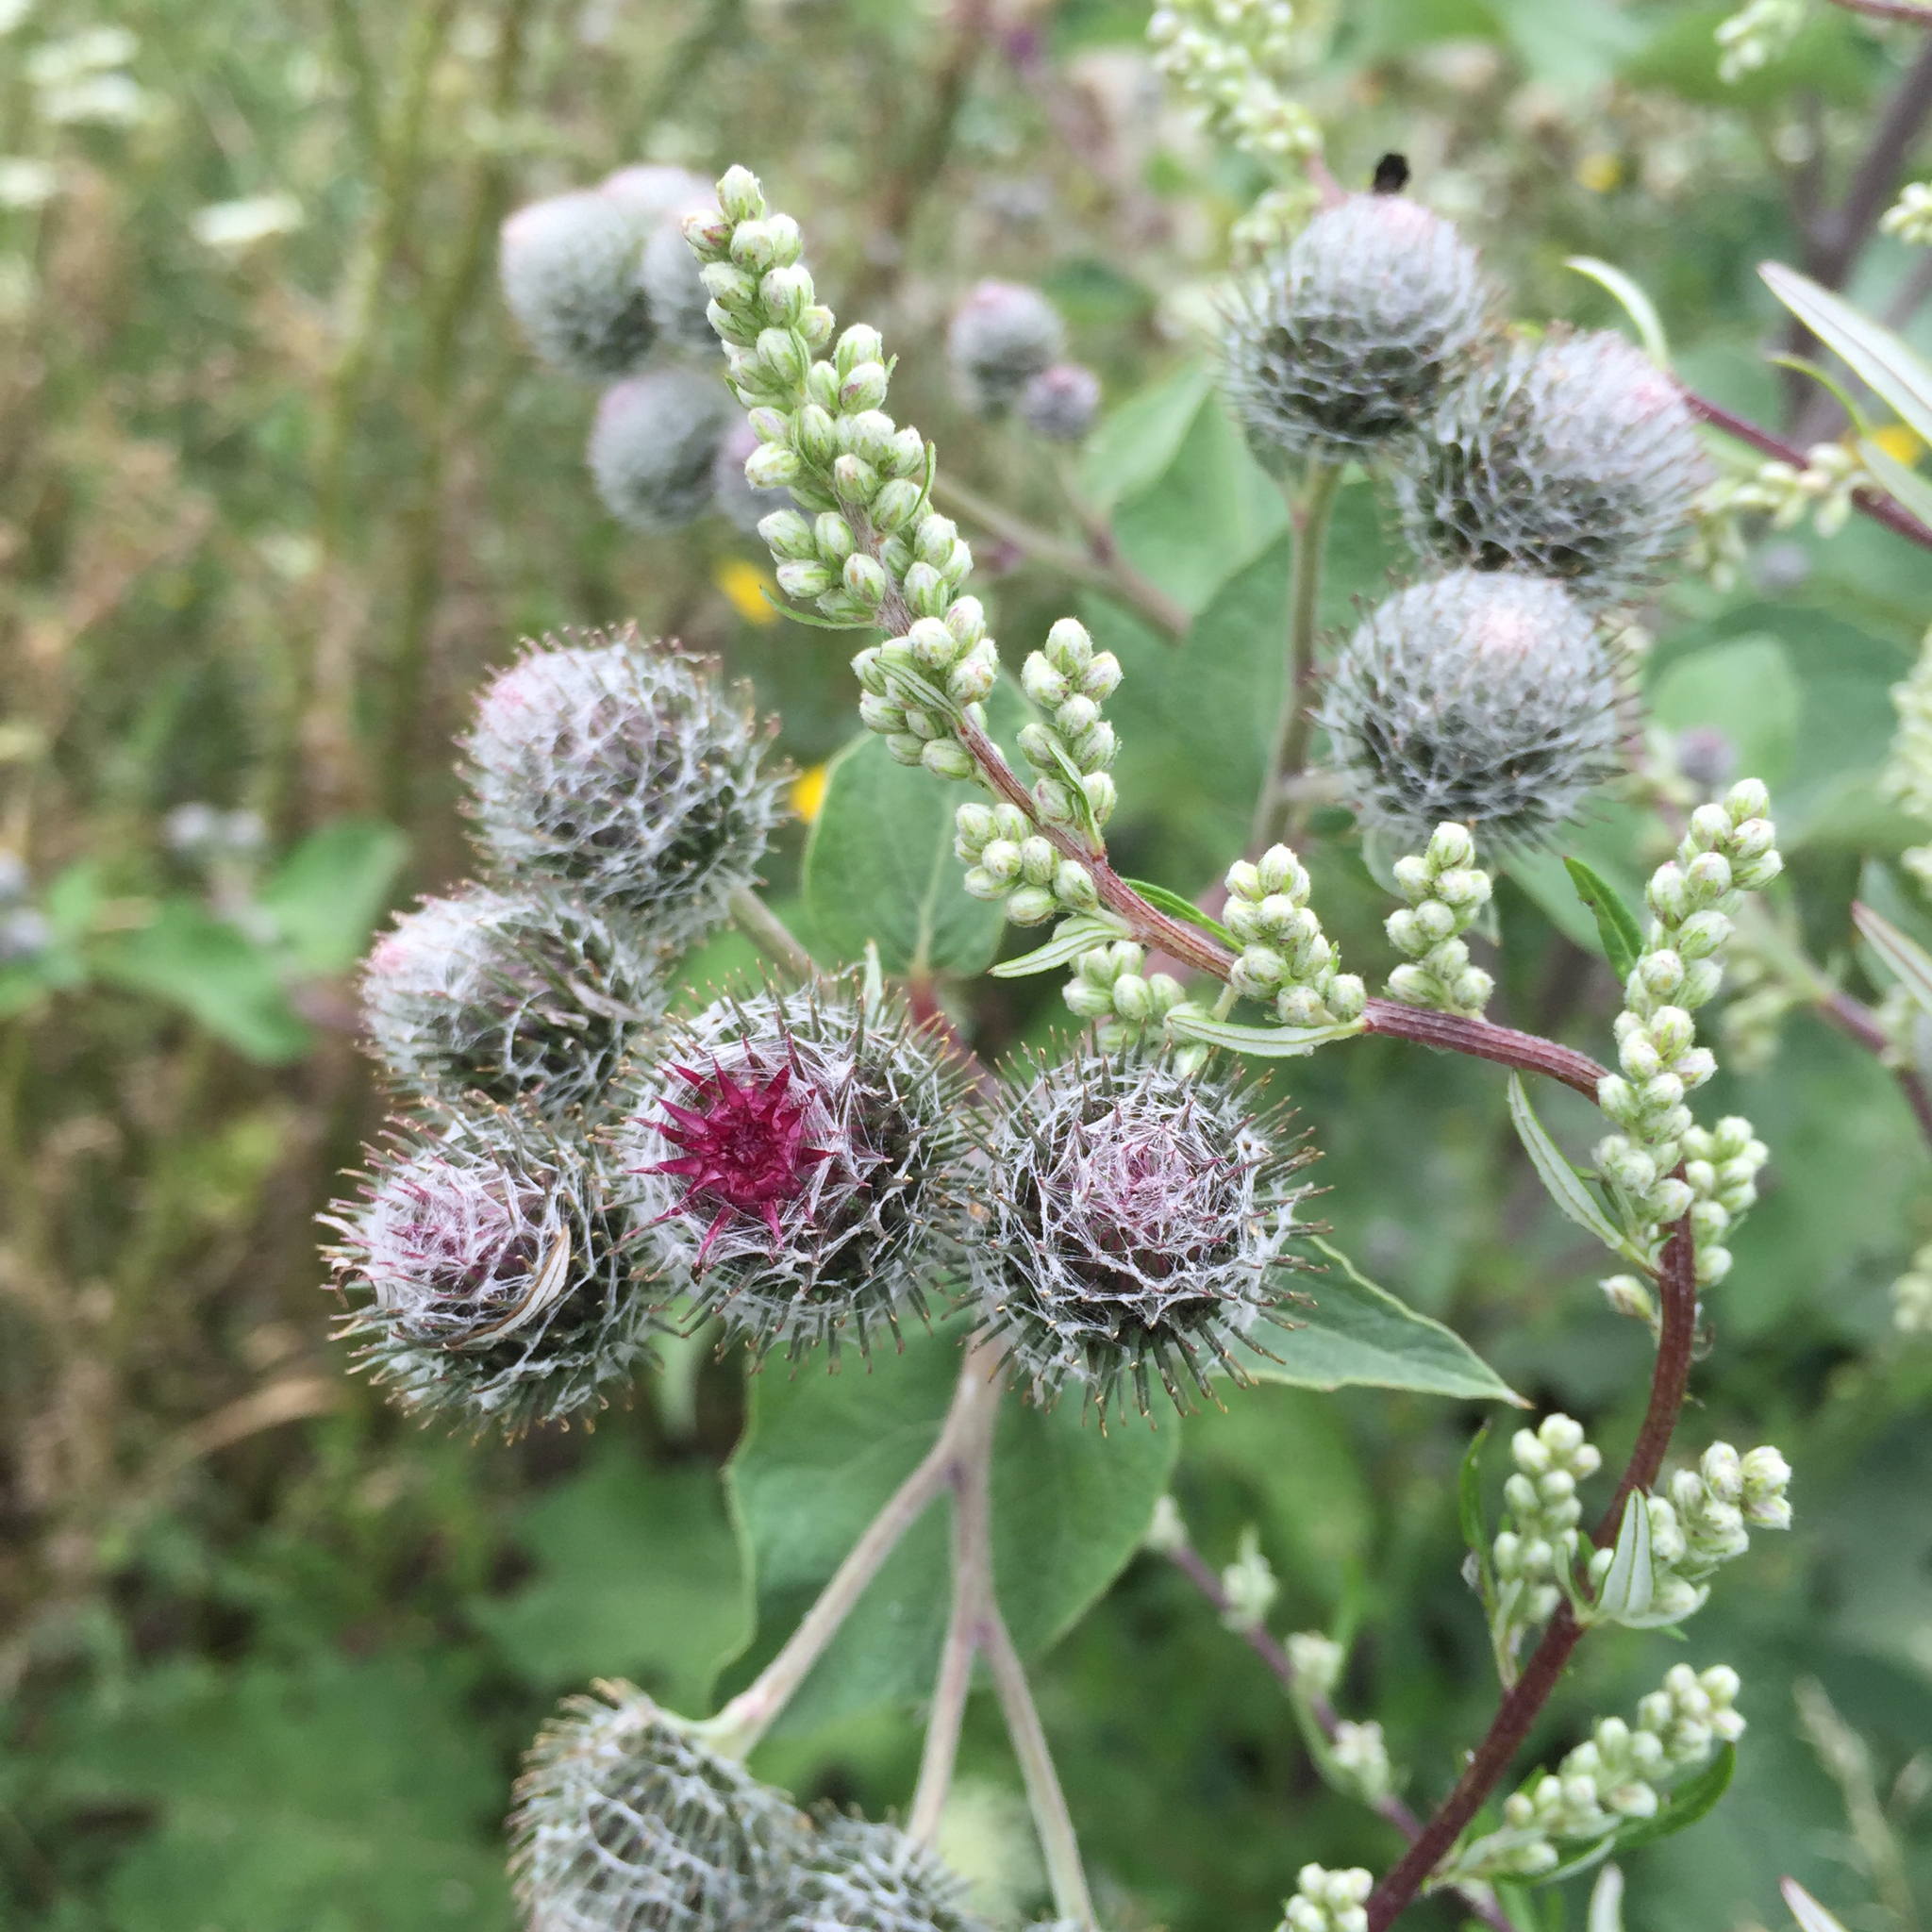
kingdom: Plantae
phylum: Tracheophyta
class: Magnoliopsida
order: Asterales
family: Asteraceae
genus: Arctium
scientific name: Arctium tomentosum
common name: Woolly burdock
